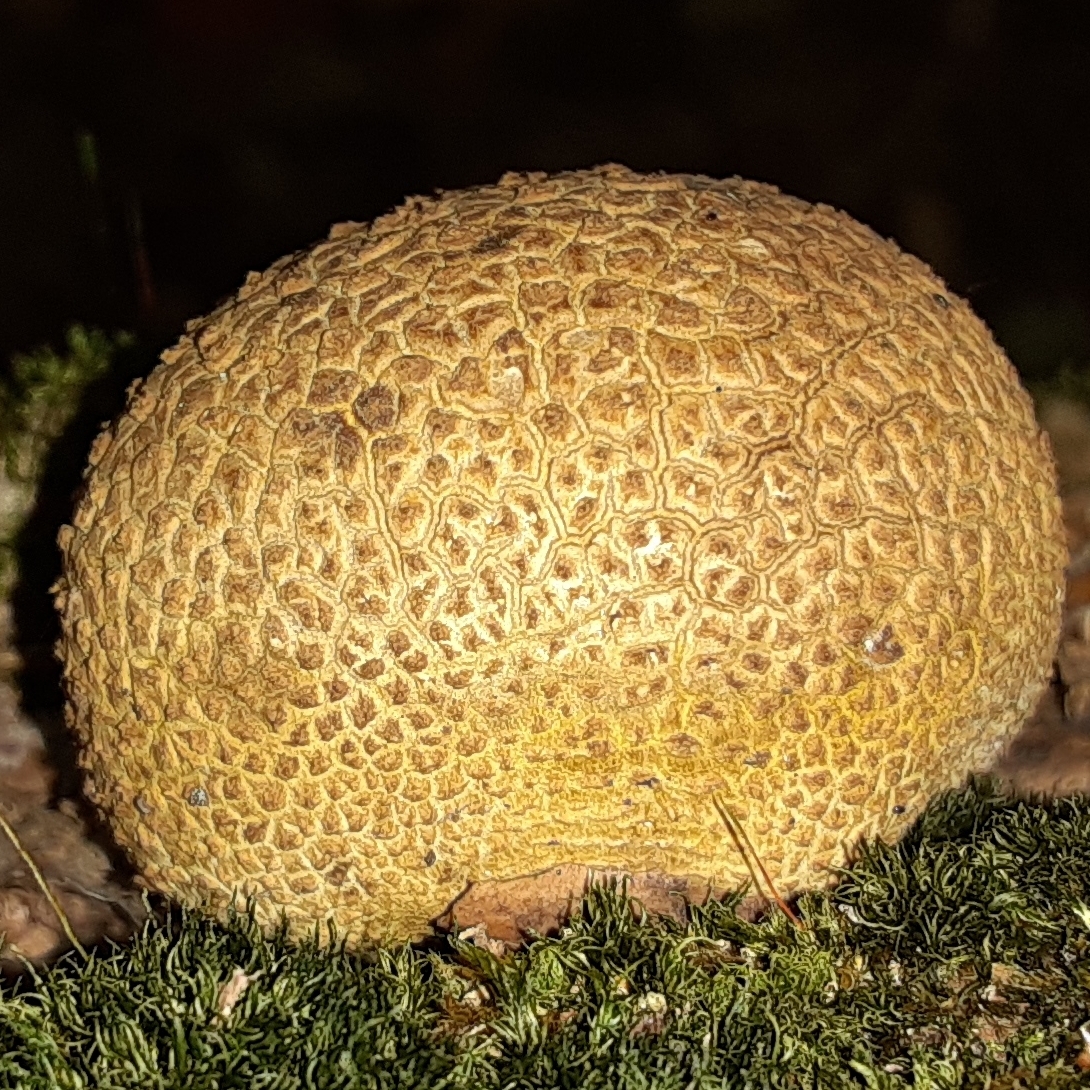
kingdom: Fungi
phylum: Basidiomycota
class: Agaricomycetes
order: Boletales
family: Sclerodermataceae
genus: Scleroderma
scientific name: Scleroderma citrinum
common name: Common earthball
